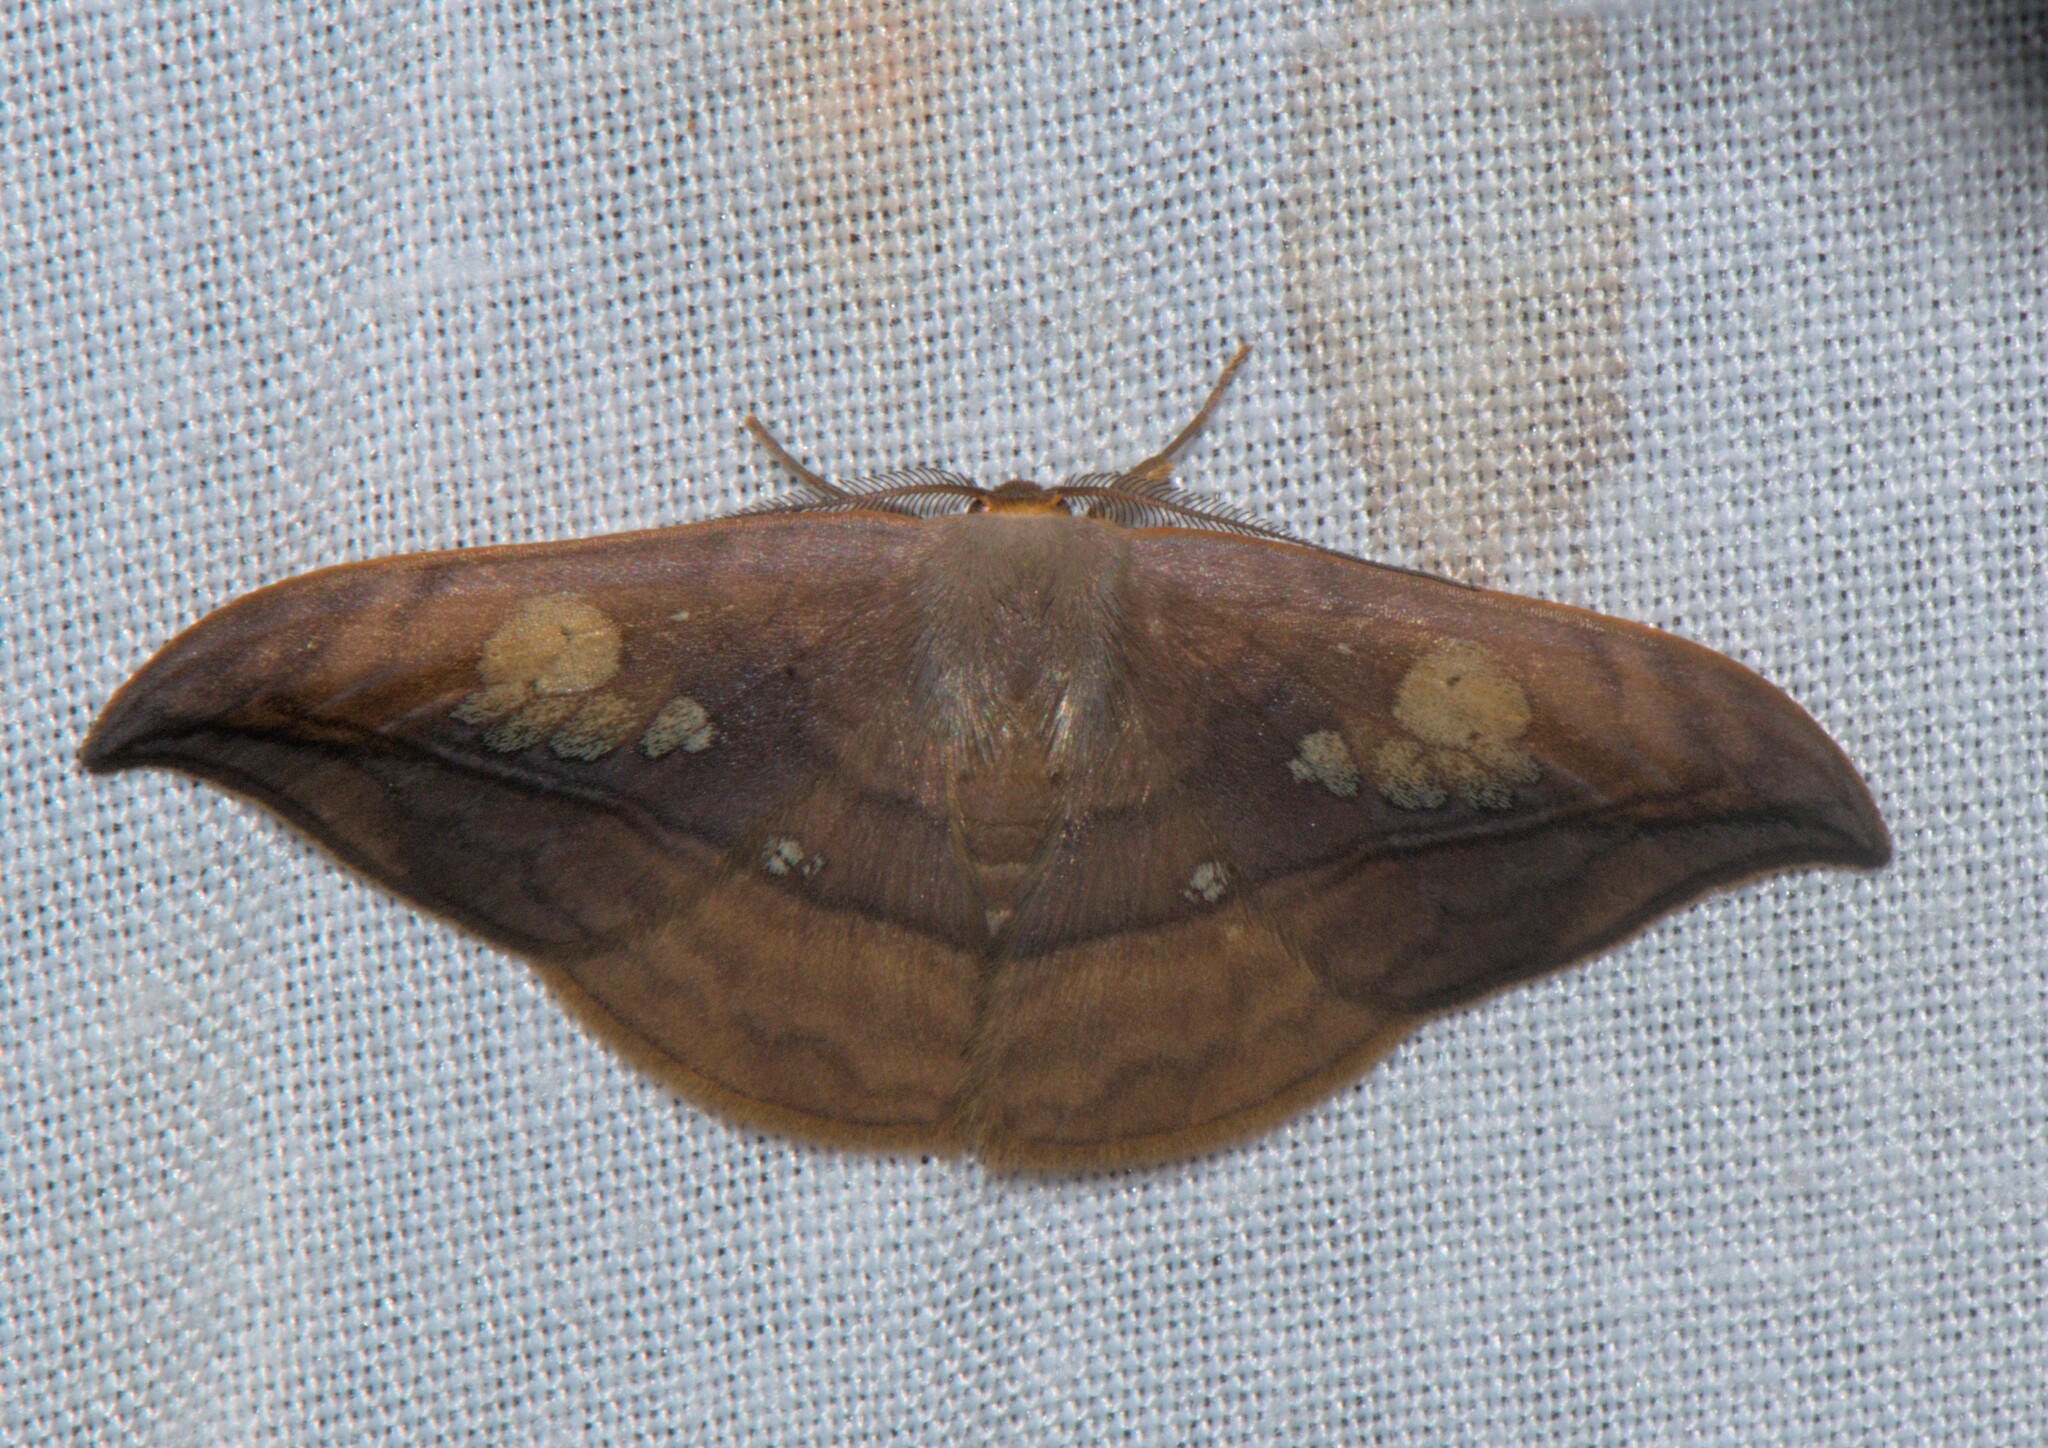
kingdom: Animalia
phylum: Arthropoda
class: Insecta
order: Lepidoptera
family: Drepanidae
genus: Agnidra
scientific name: Agnidra vinacea
